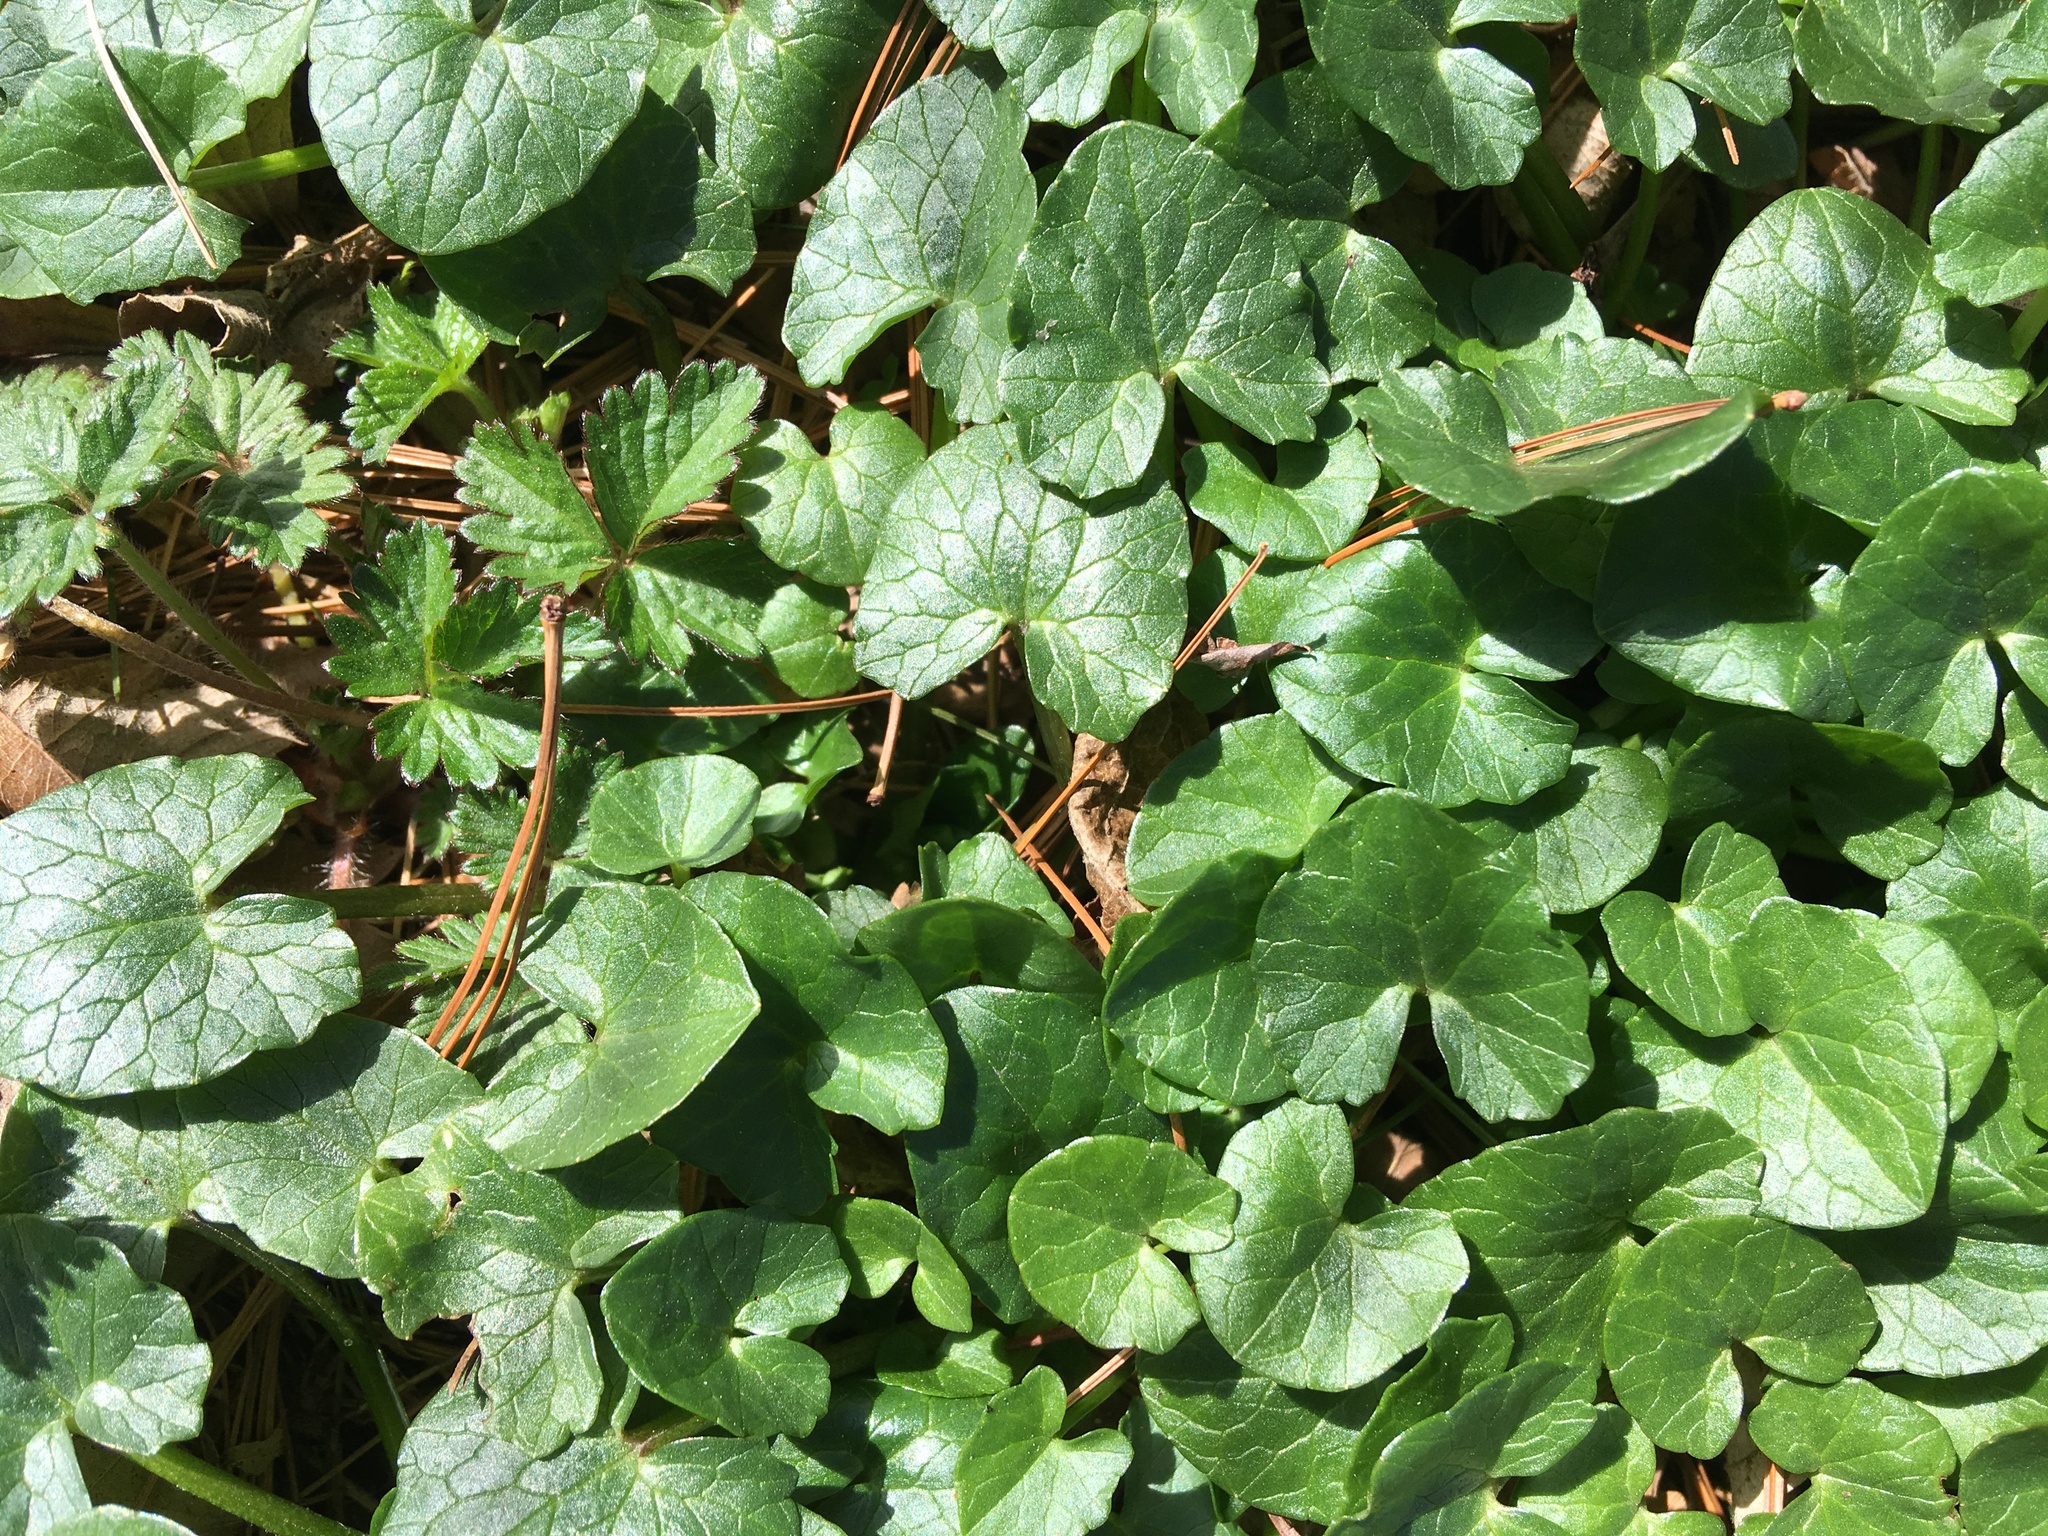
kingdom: Plantae
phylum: Tracheophyta
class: Magnoliopsida
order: Ranunculales
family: Ranunculaceae
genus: Ficaria
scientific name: Ficaria verna
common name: Lesser celandine
